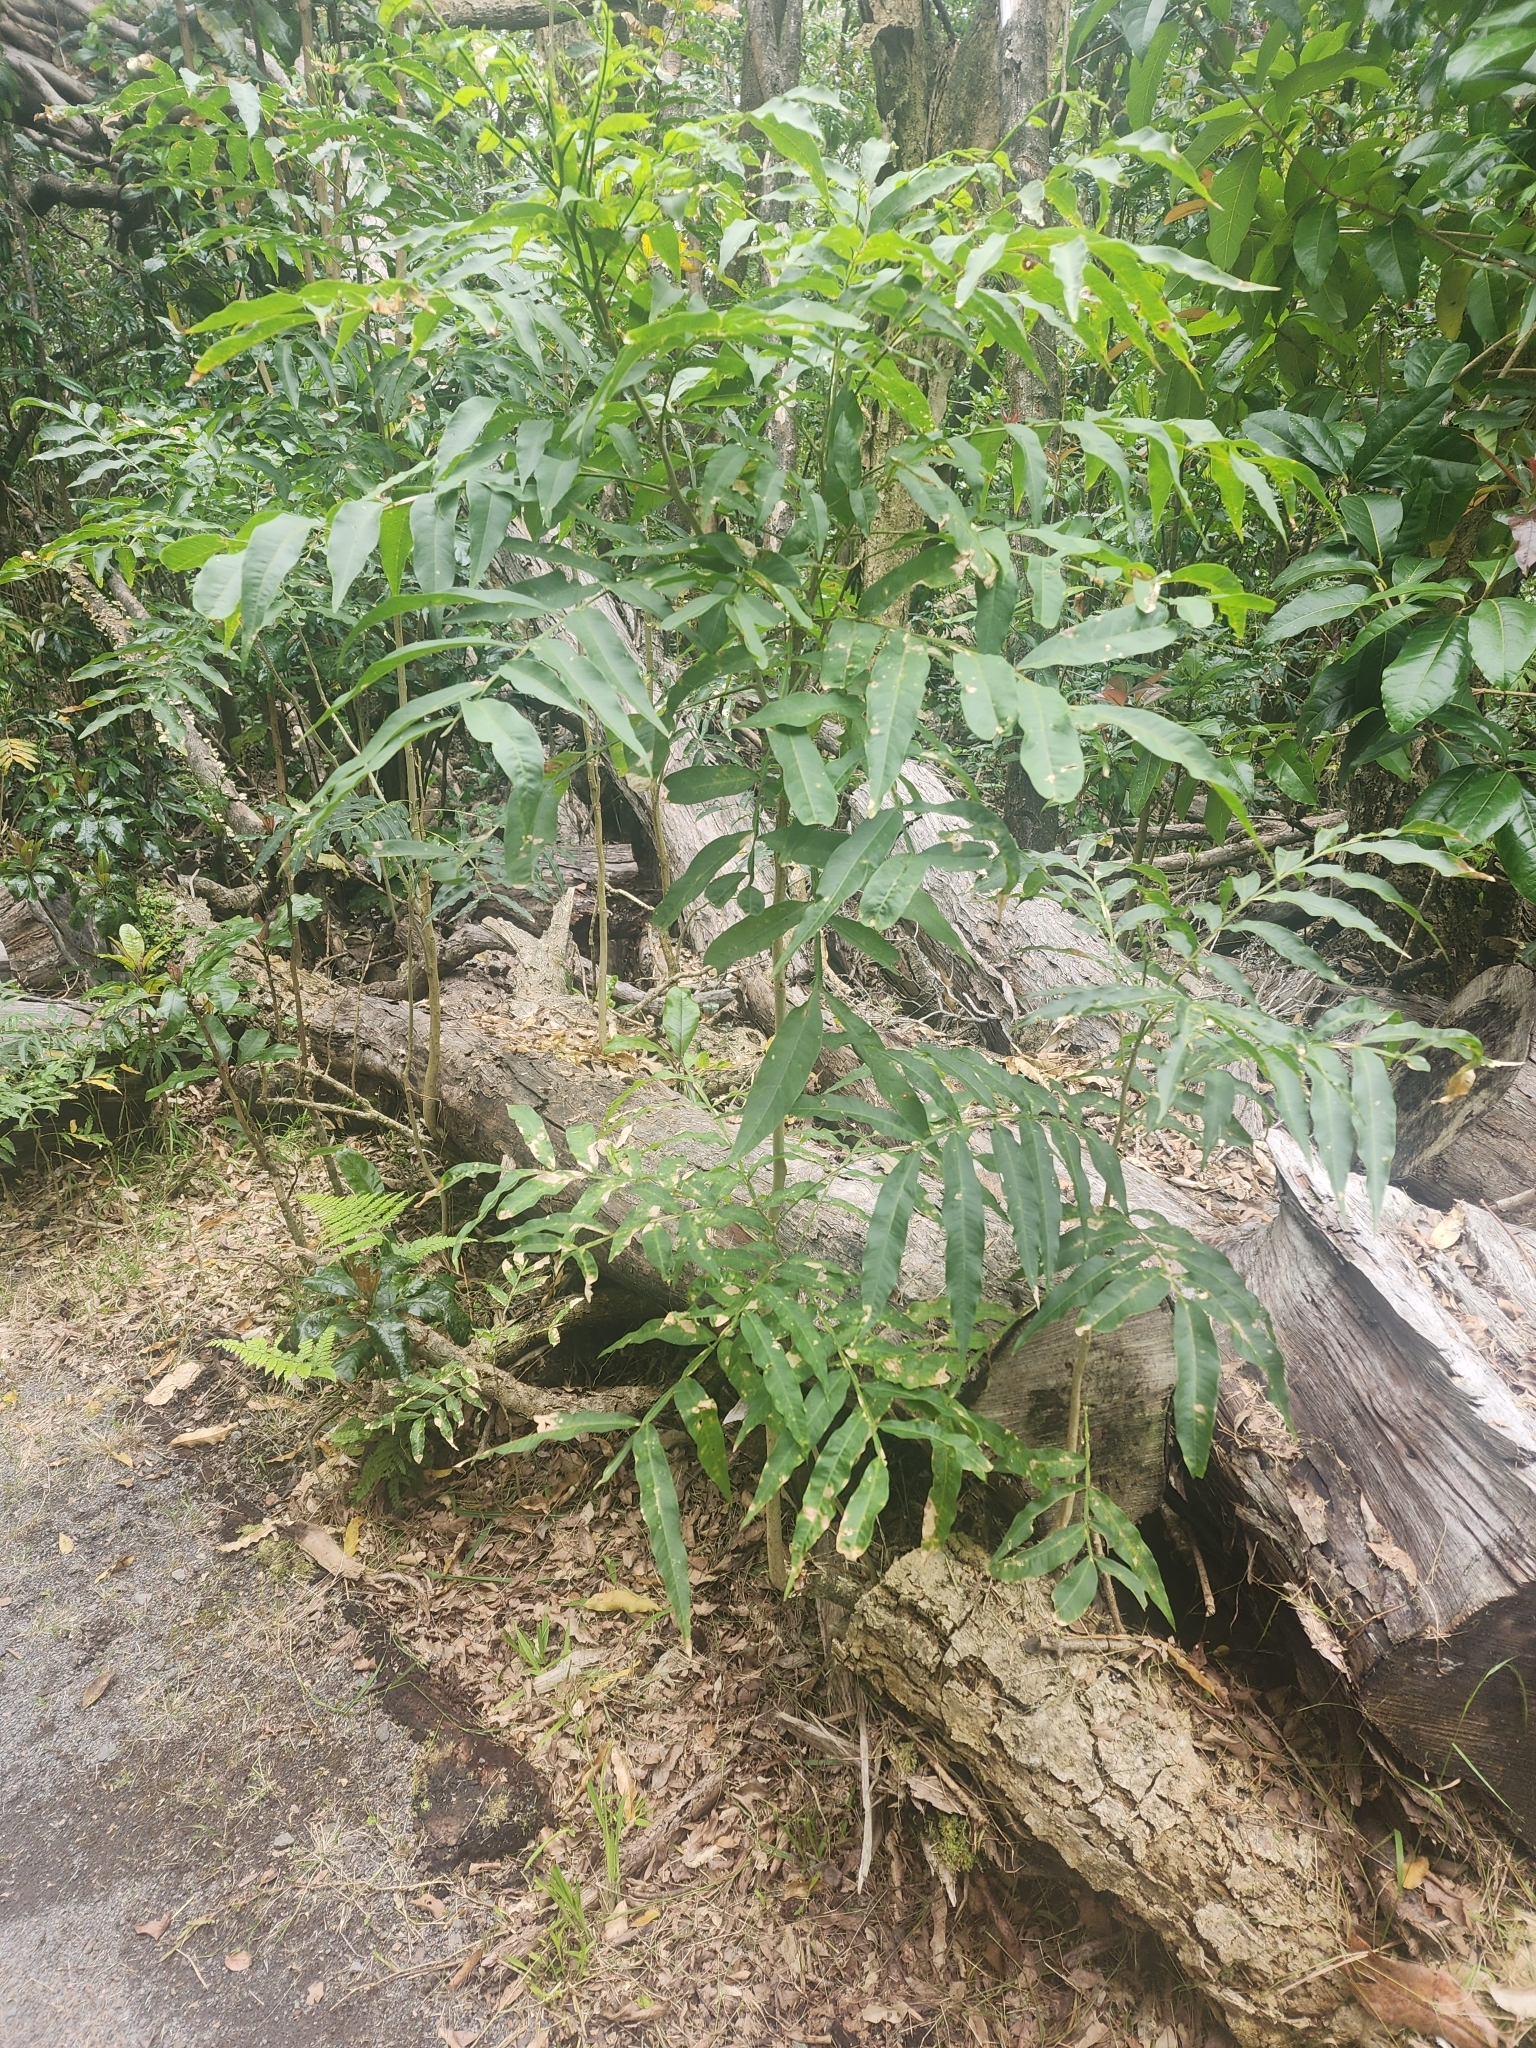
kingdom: Plantae
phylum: Tracheophyta
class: Magnoliopsida
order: Sapindales
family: Sapindaceae
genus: Sapindus
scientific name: Sapindus saponaria
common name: Wingleaf soapberry
